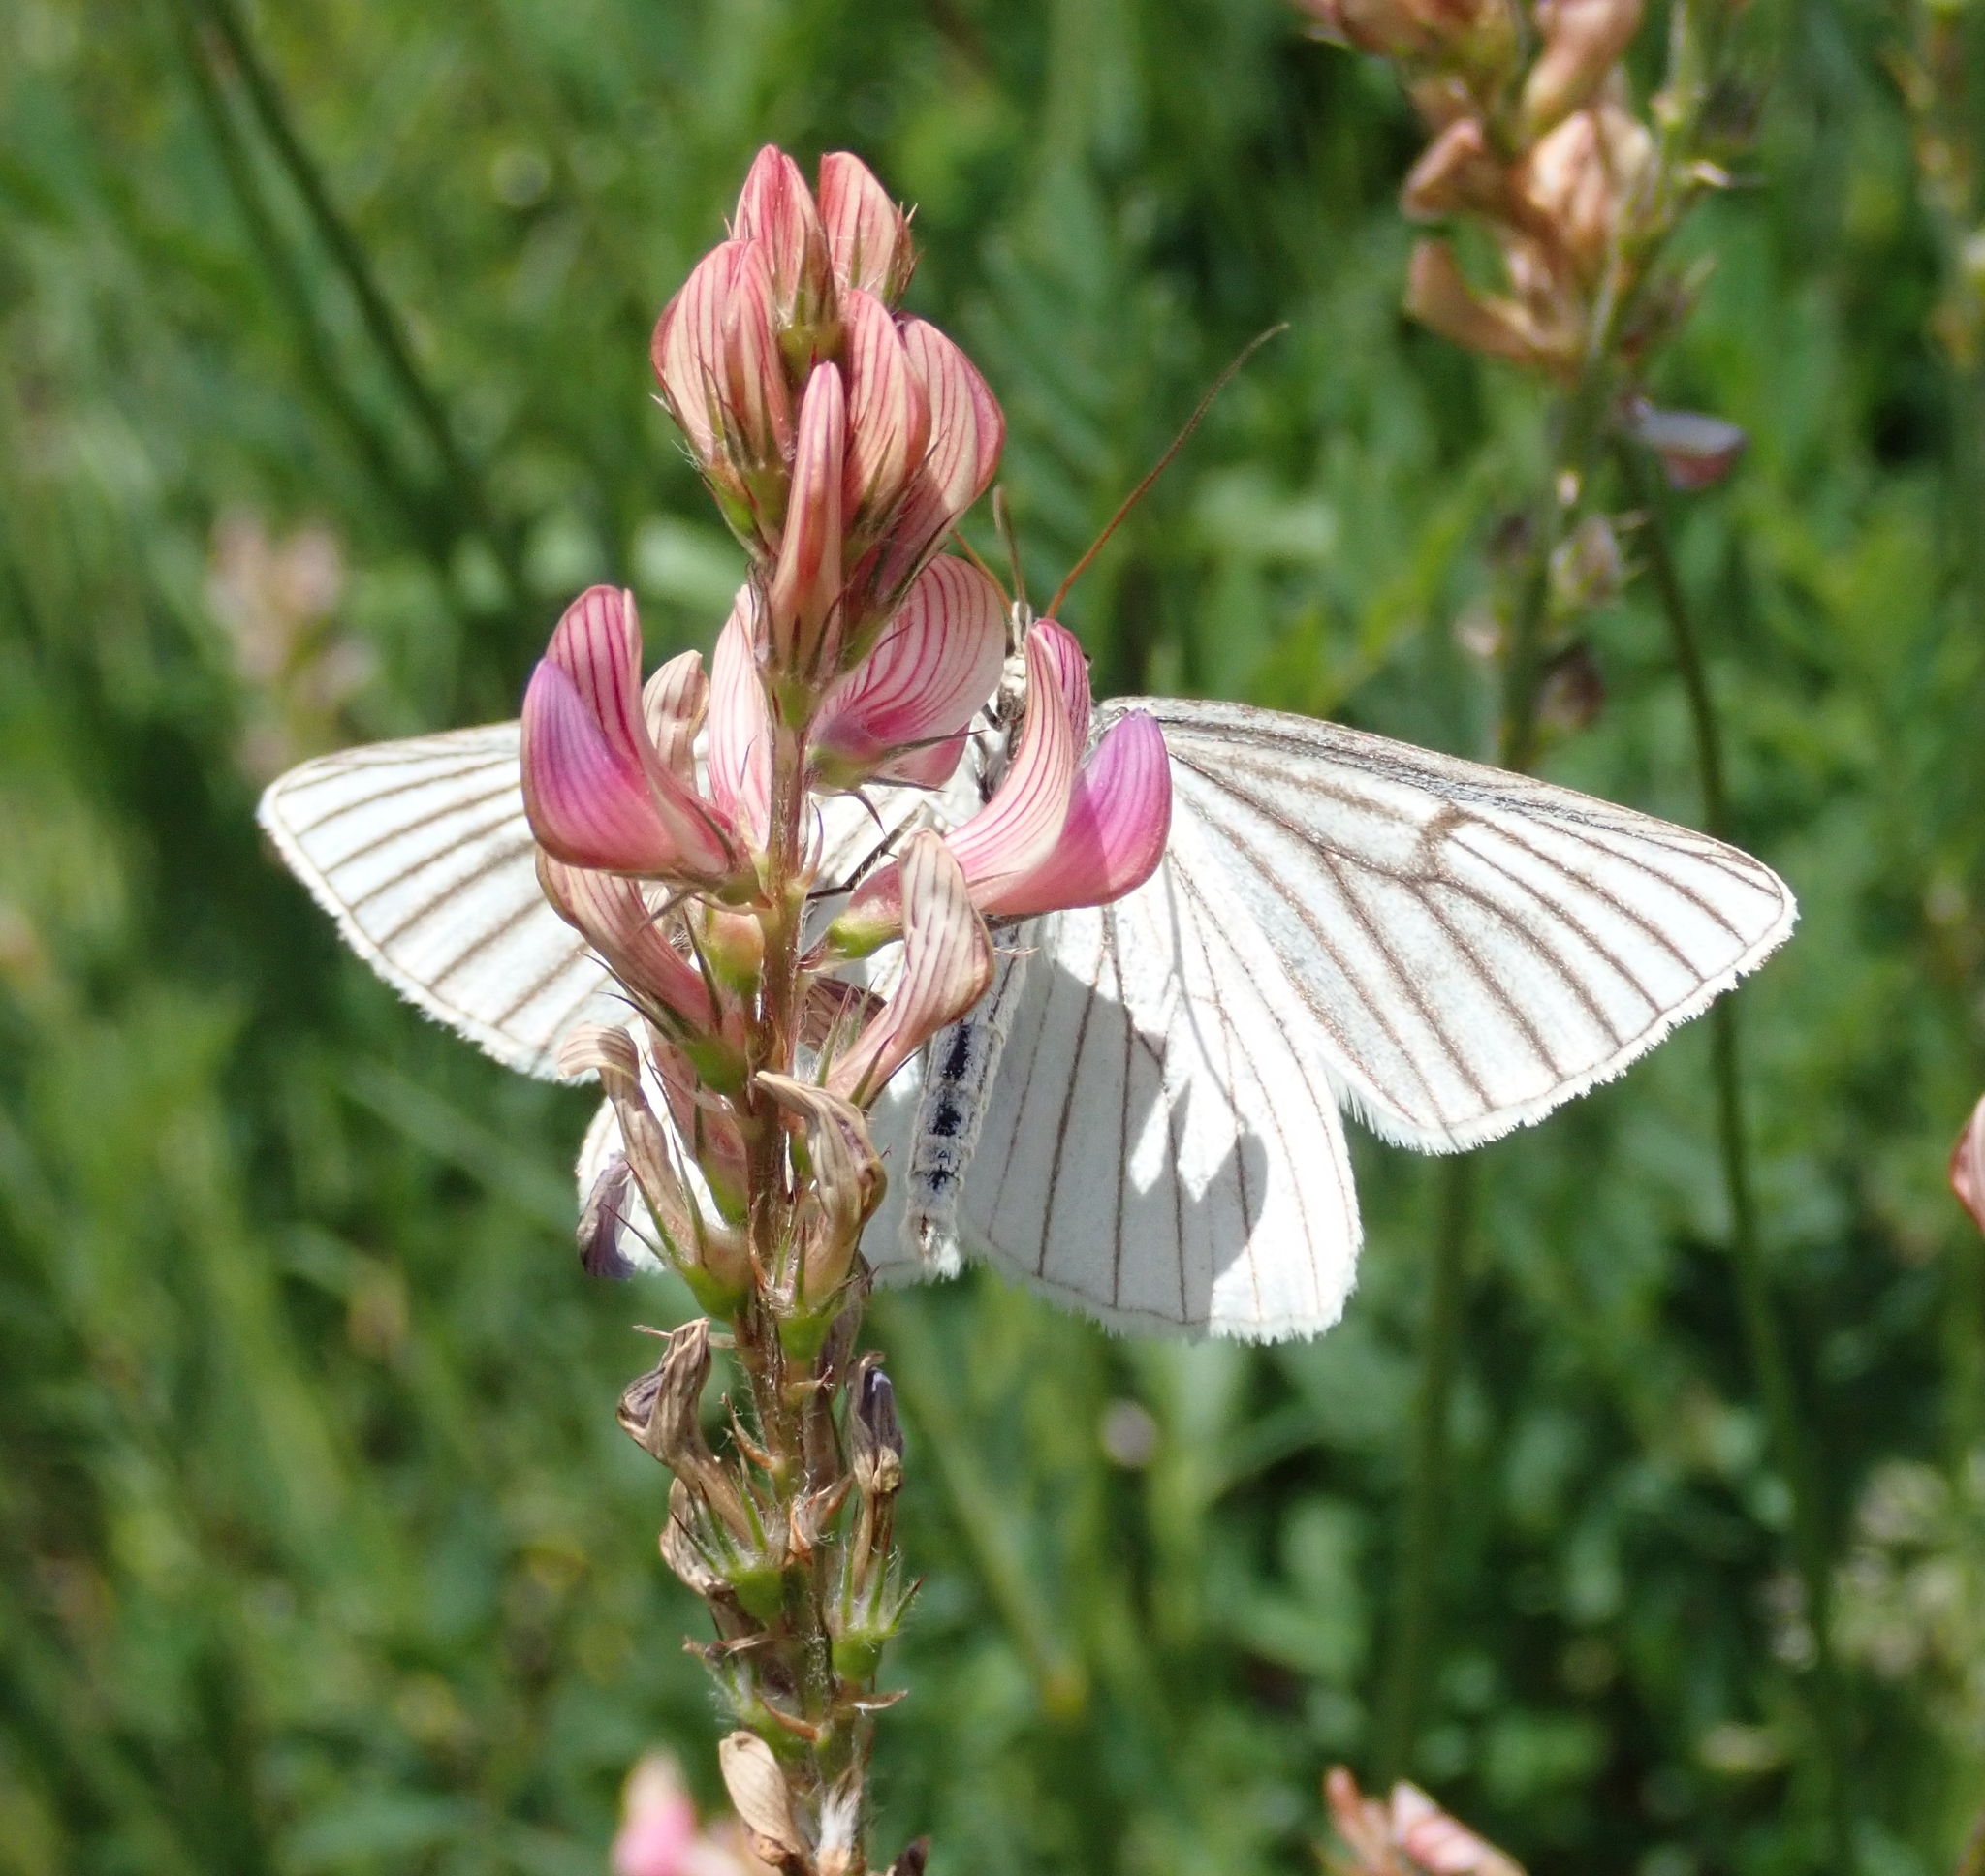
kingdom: Animalia
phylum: Arthropoda
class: Insecta
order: Lepidoptera
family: Geometridae
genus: Siona
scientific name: Siona lineata
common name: Black-veined moth
